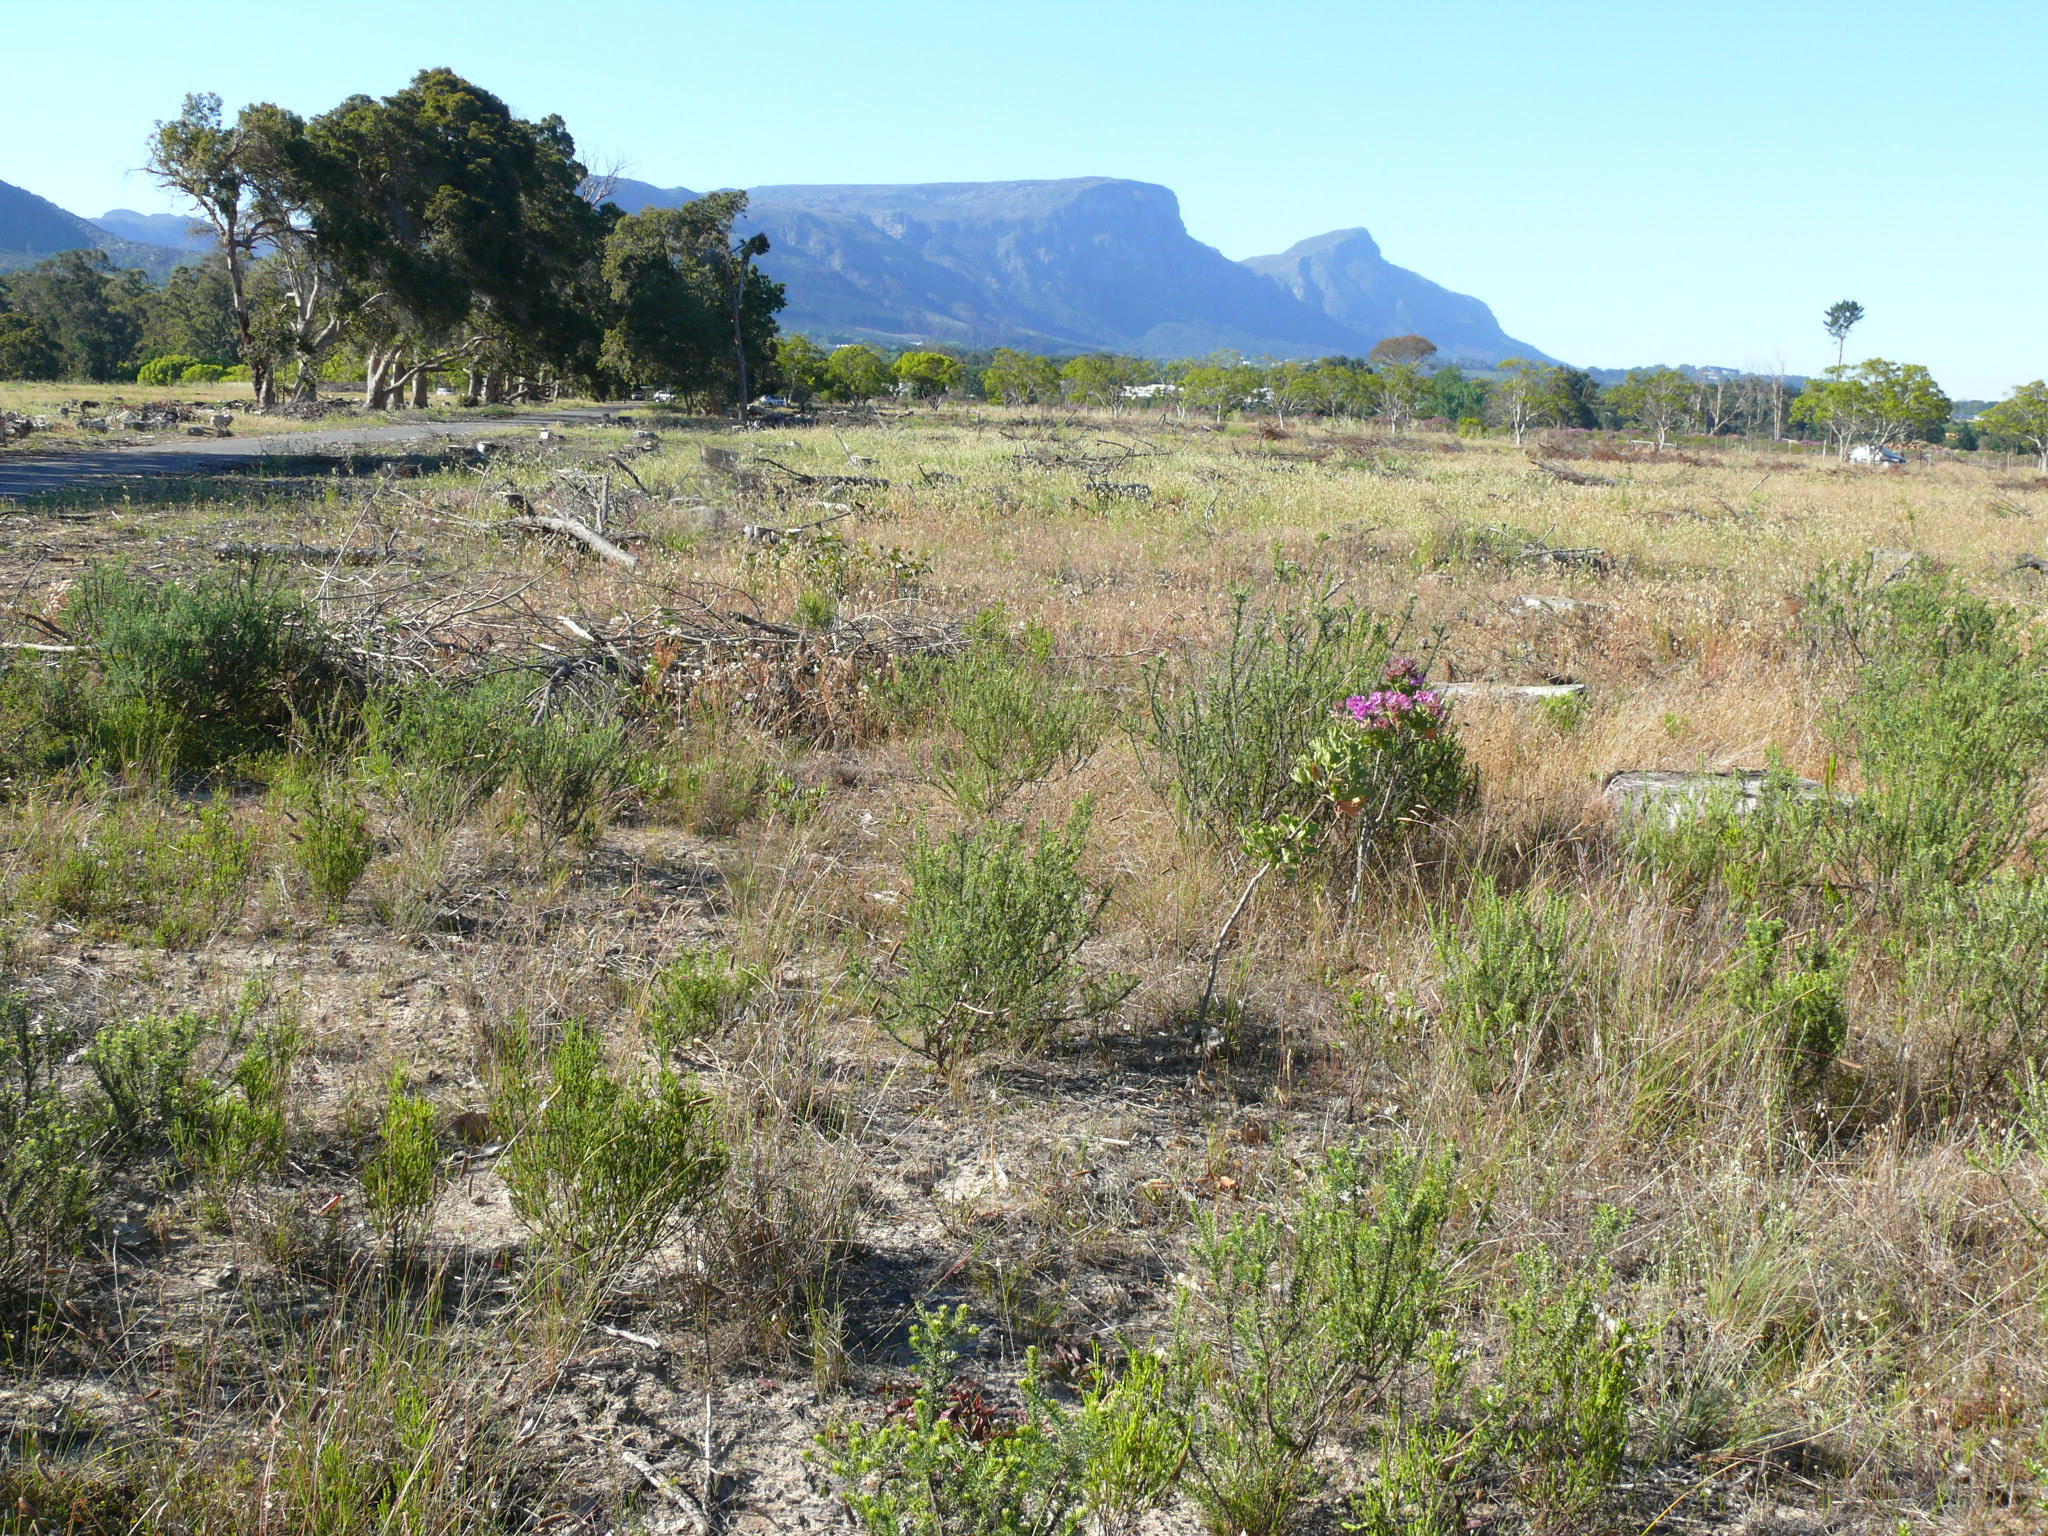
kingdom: Plantae
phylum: Tracheophyta
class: Magnoliopsida
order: Geraniales
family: Geraniaceae
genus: Pelargonium
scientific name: Pelargonium cucullatum
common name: Tree pelargonium
